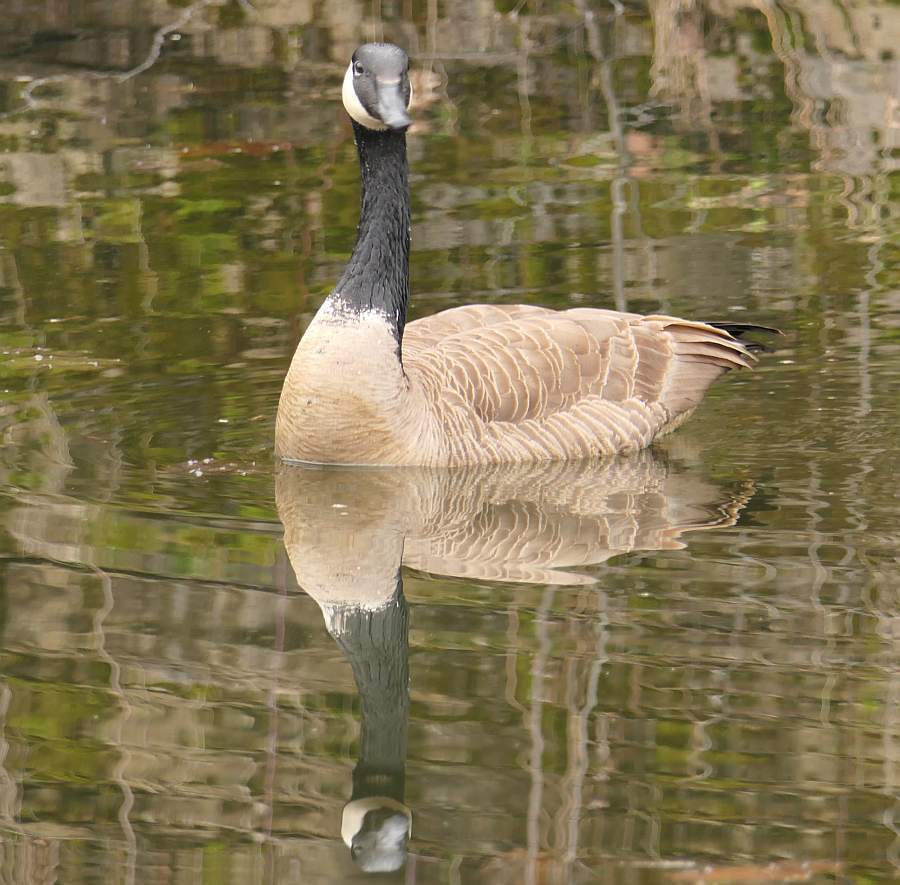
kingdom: Animalia
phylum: Chordata
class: Aves
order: Anseriformes
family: Anatidae
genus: Branta
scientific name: Branta canadensis
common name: Canada goose
